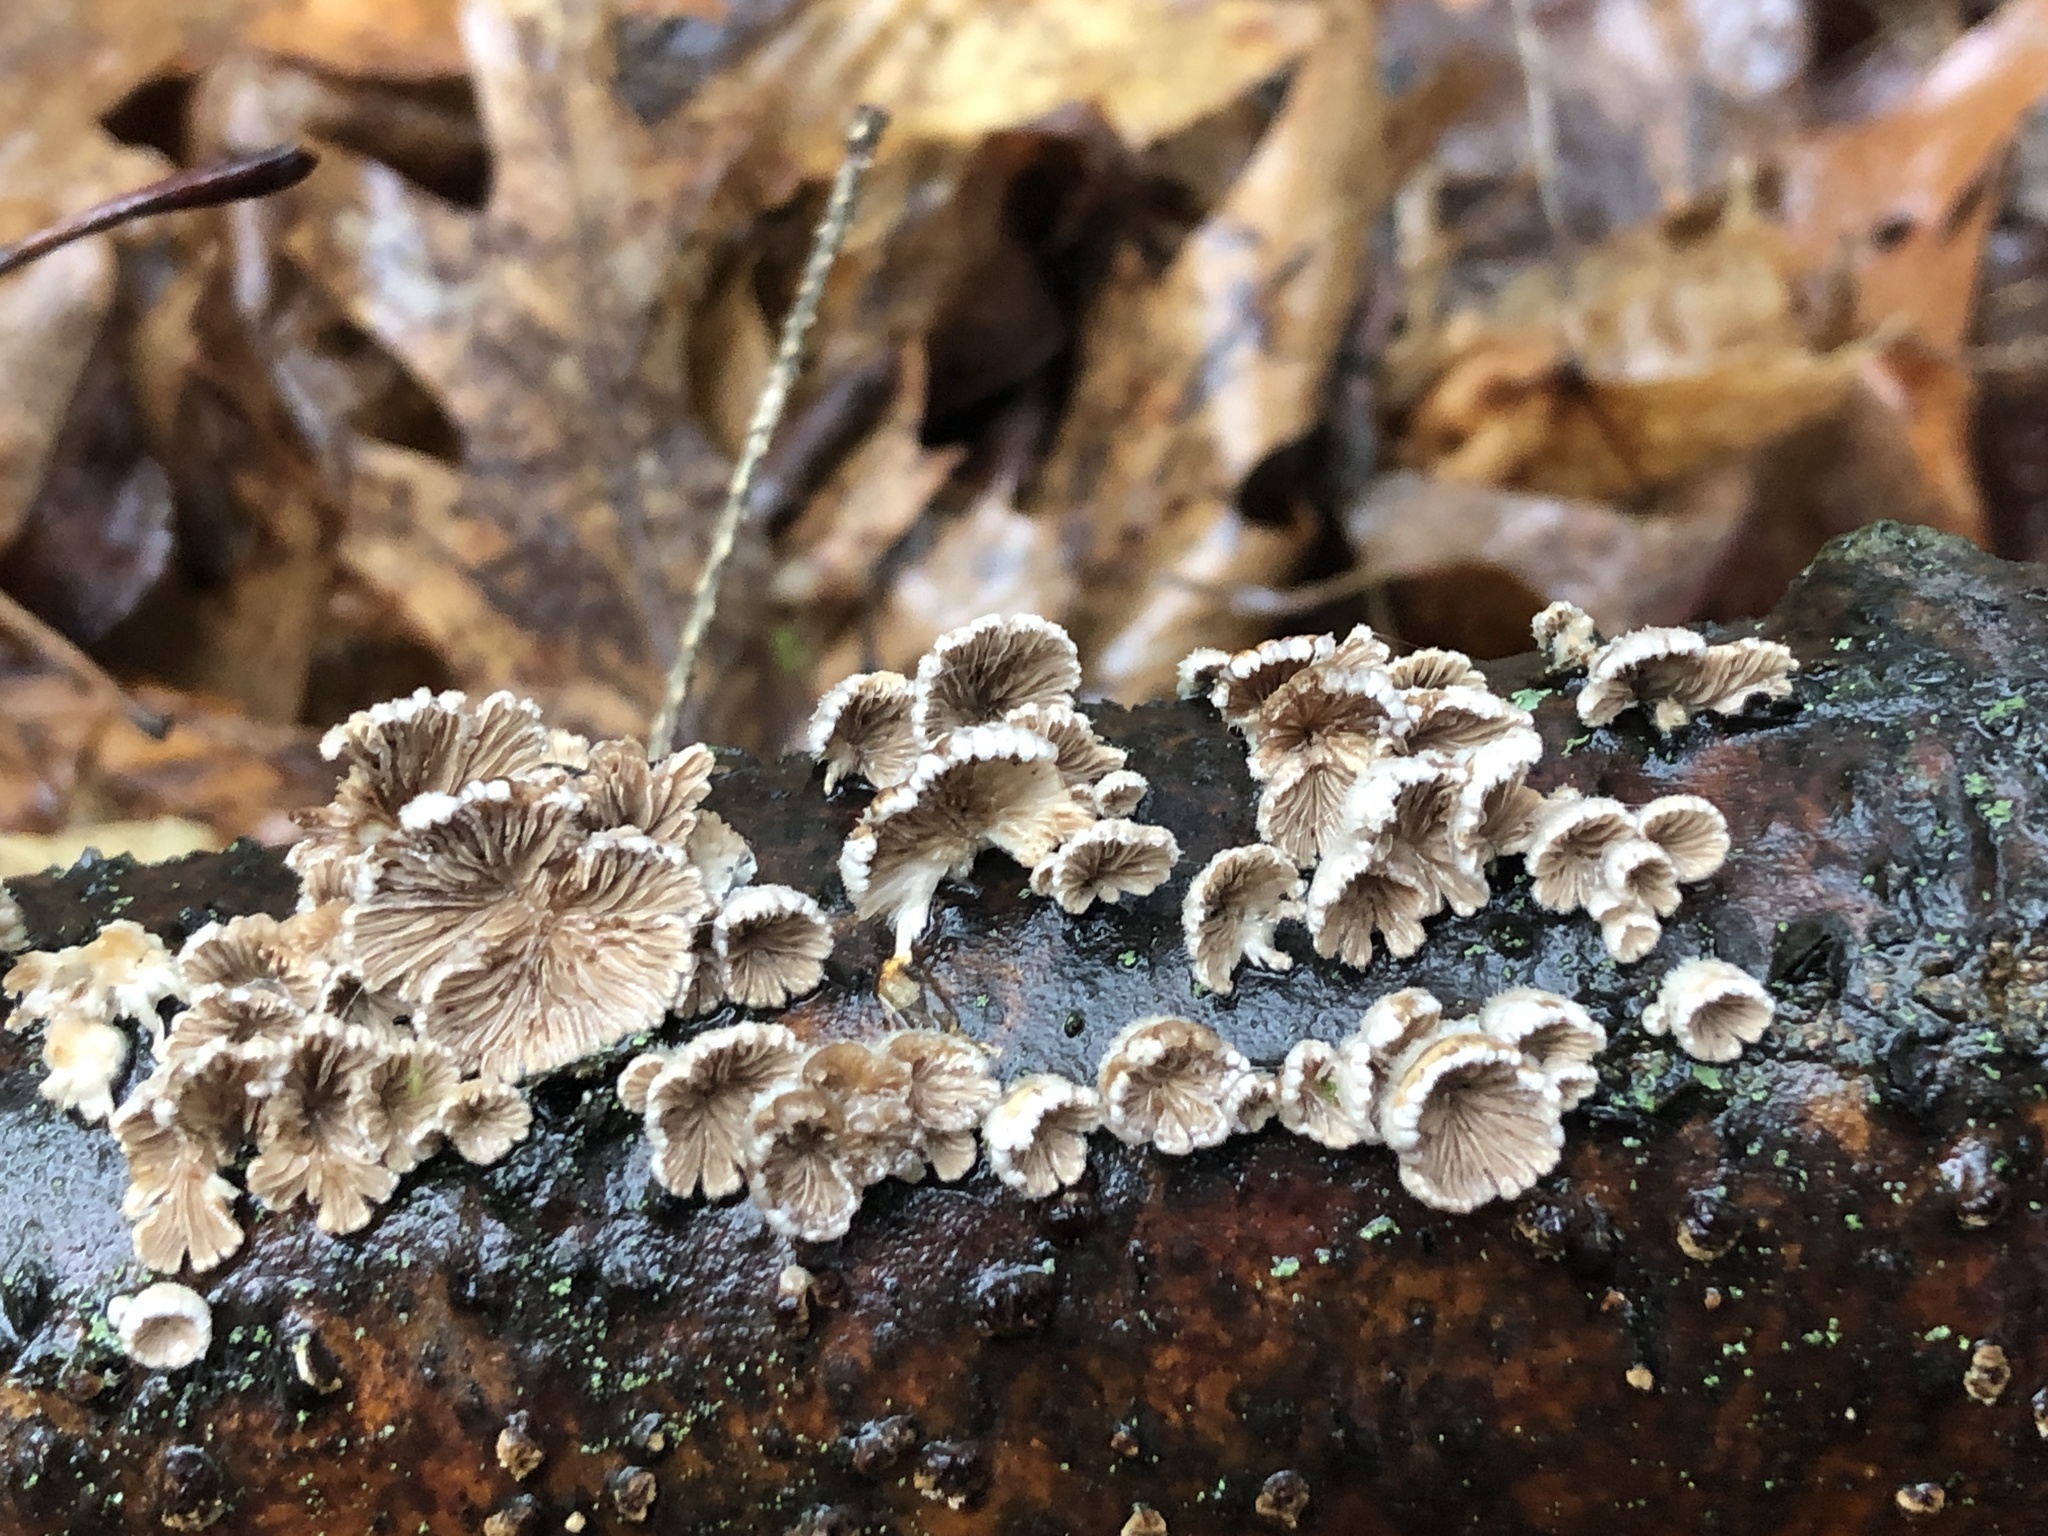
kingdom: Fungi
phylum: Basidiomycota
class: Agaricomycetes
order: Agaricales
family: Schizophyllaceae
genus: Schizophyllum
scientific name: Schizophyllum commune
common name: Common porecrust
